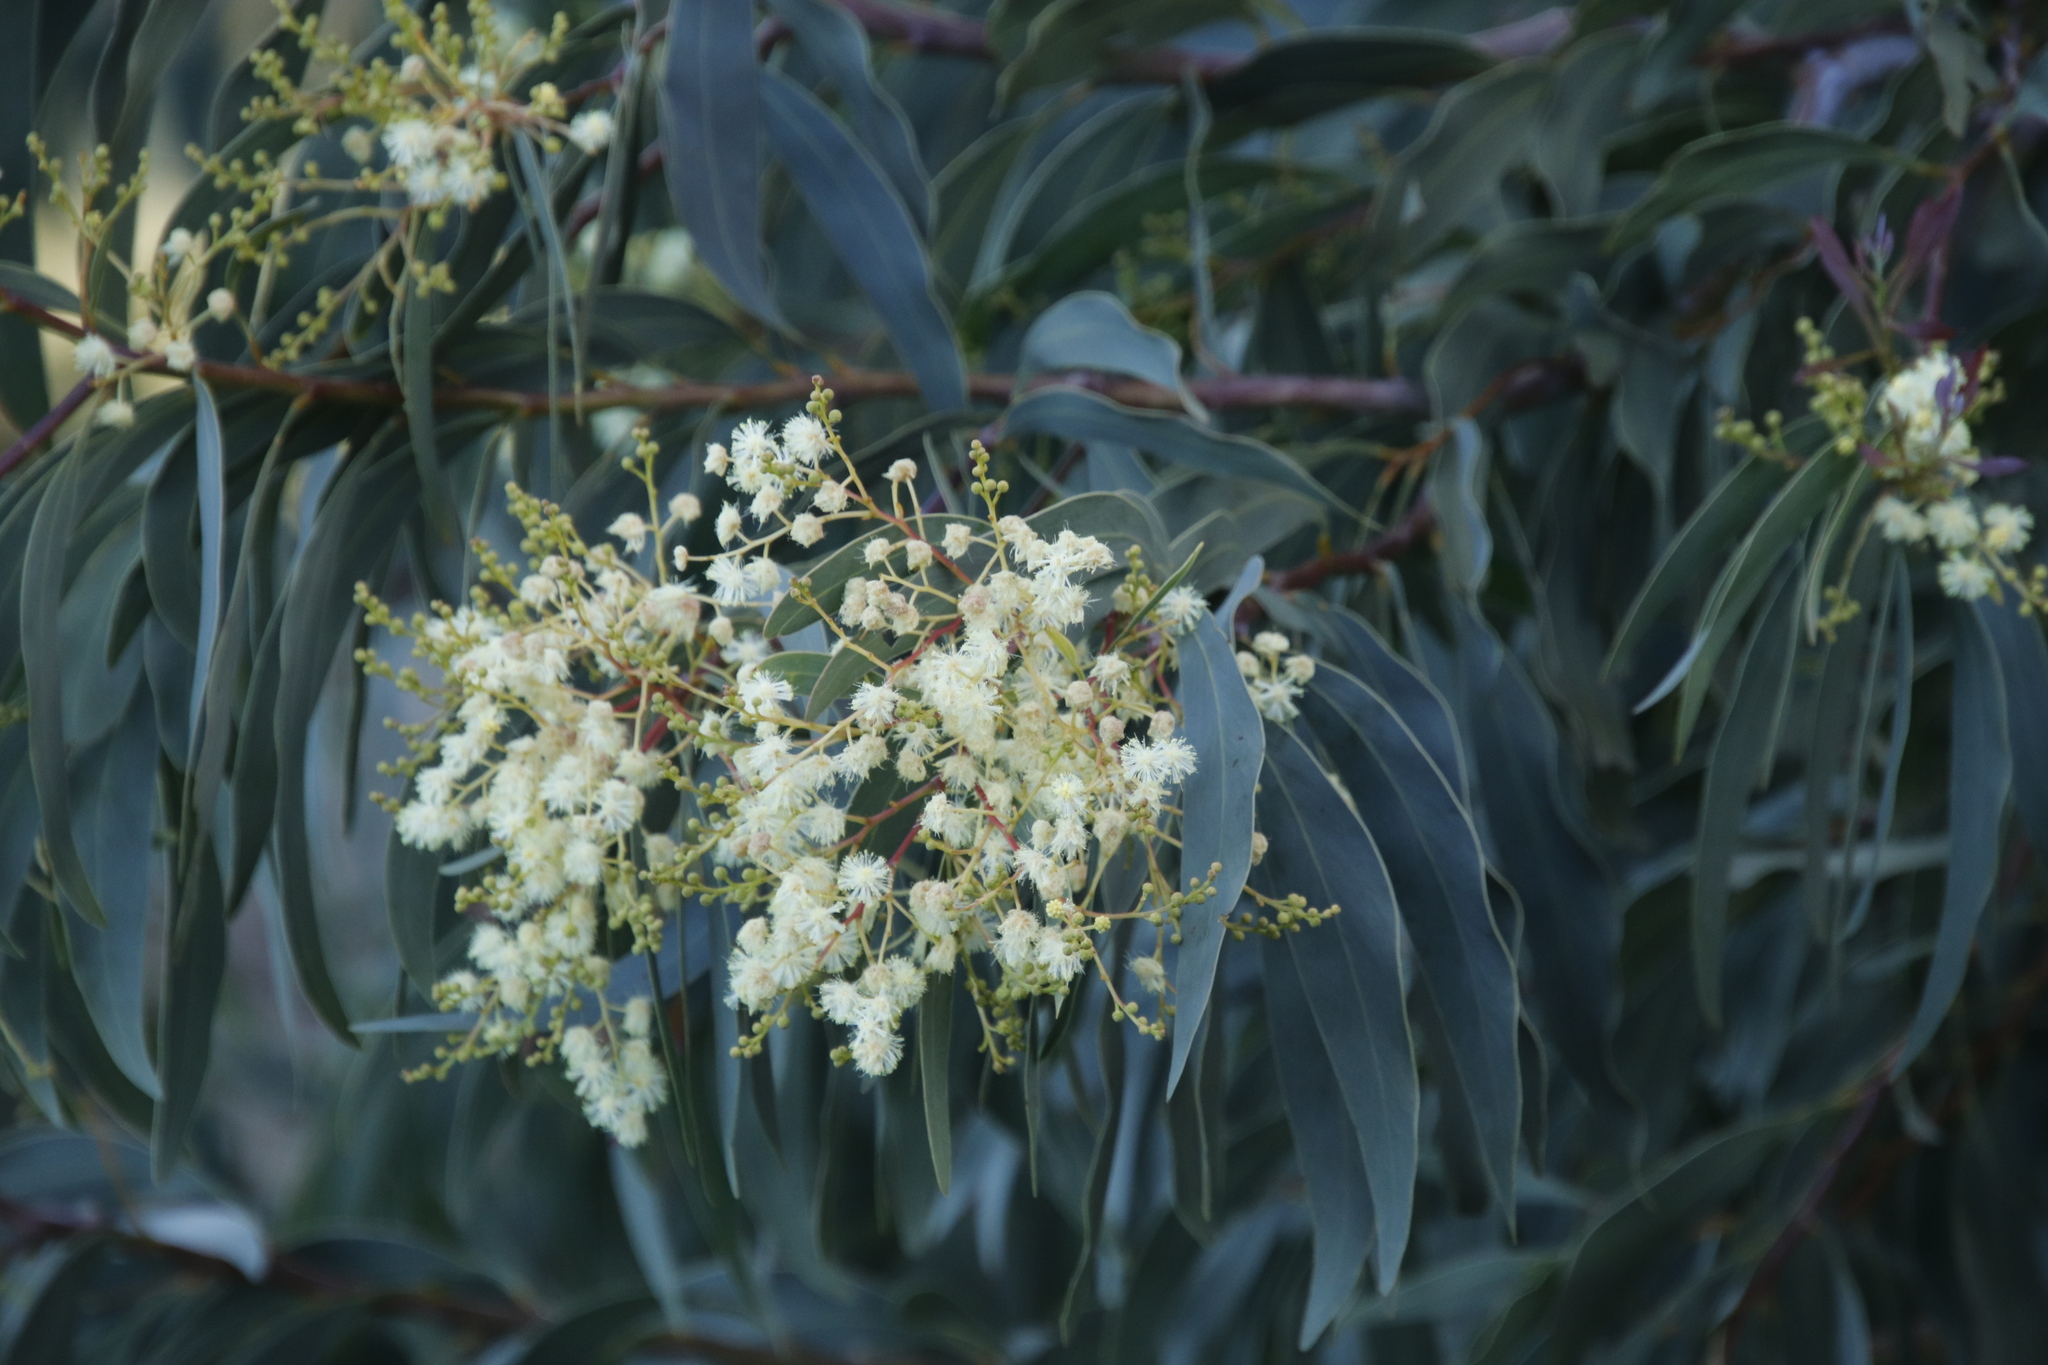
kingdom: Plantae
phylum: Tracheophyta
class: Magnoliopsida
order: Fabales
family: Fabaceae
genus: Acacia
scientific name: Acacia falciformis
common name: Tanning wattle
